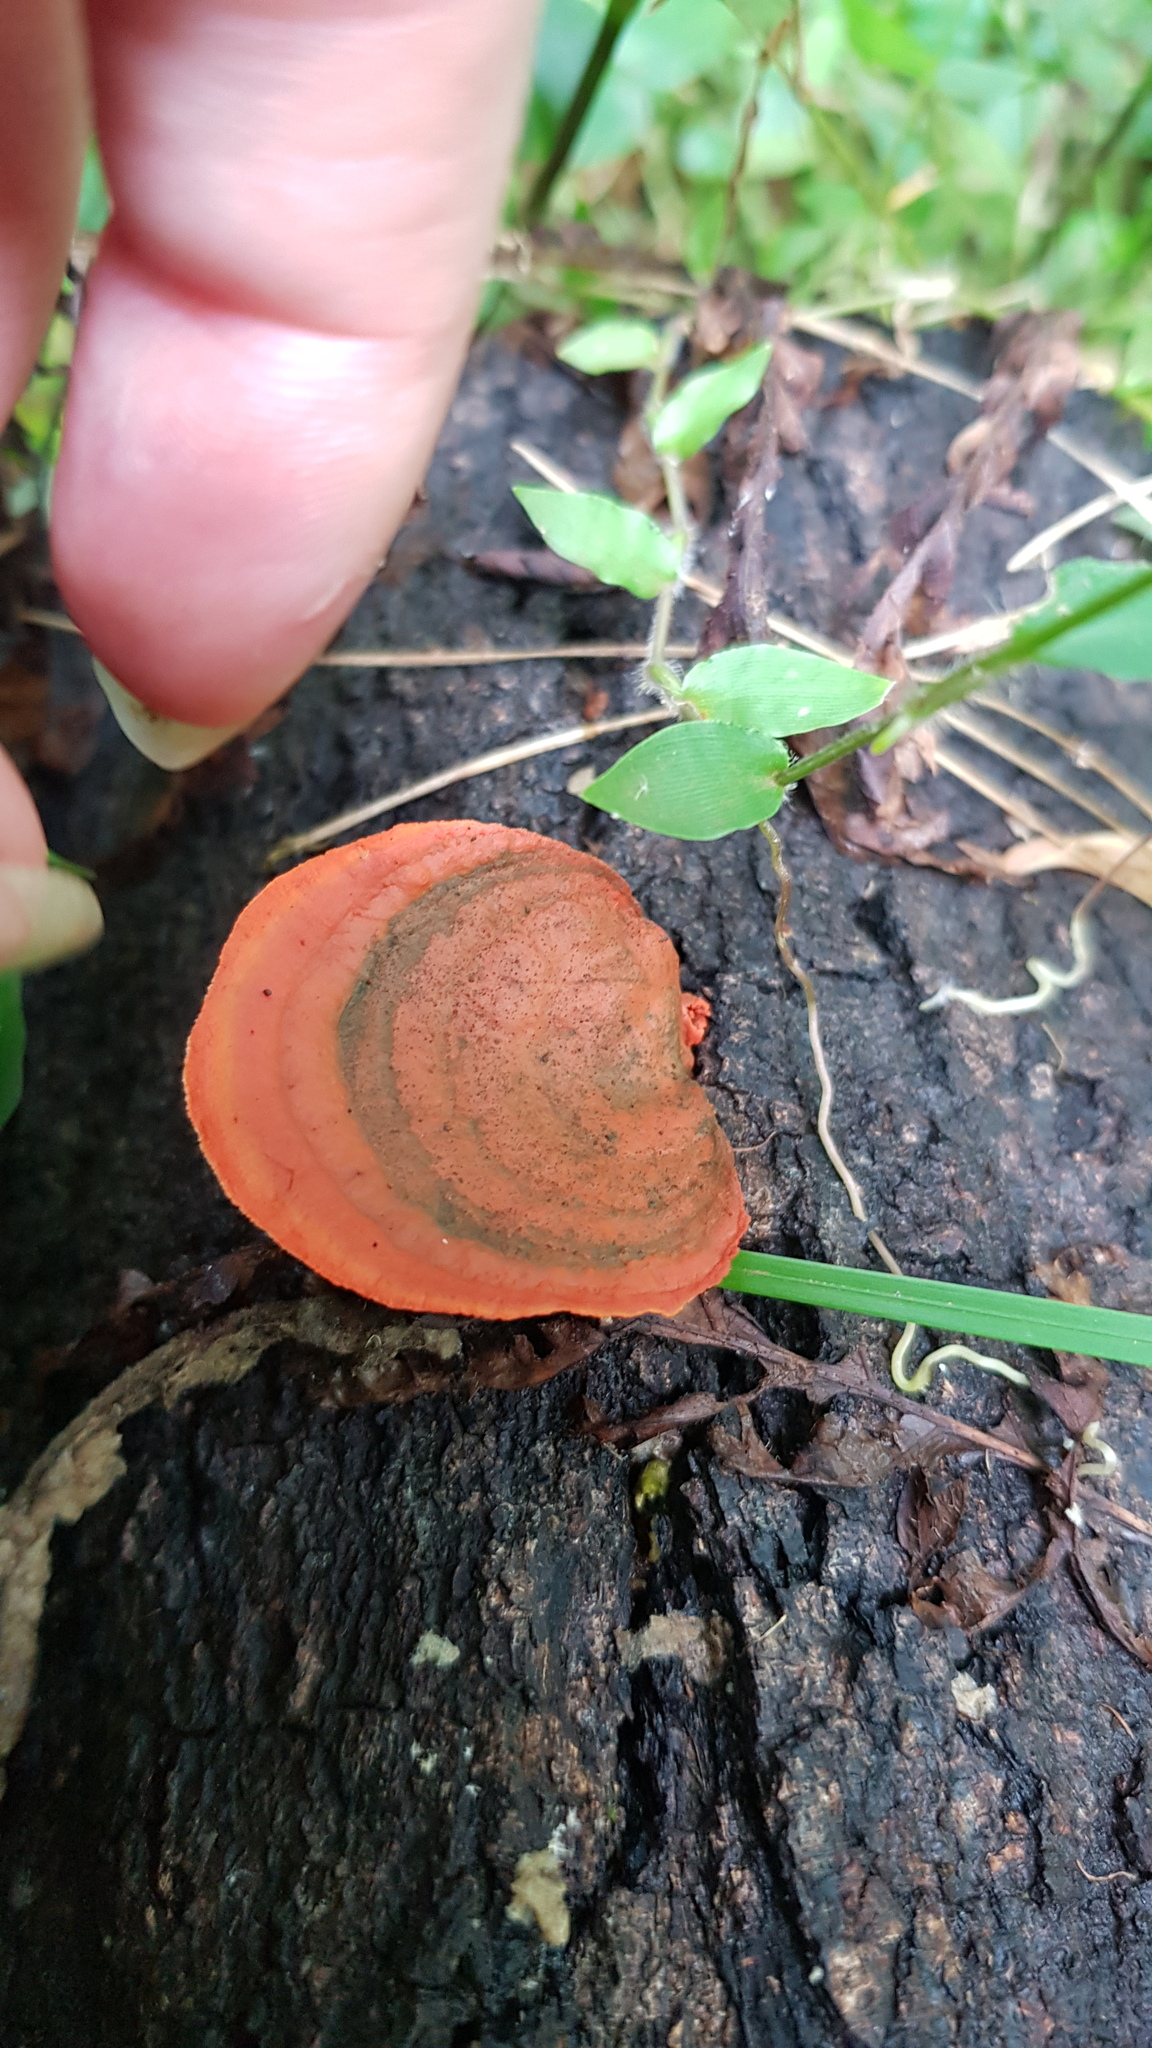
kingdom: Fungi
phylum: Basidiomycota
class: Agaricomycetes
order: Polyporales
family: Polyporaceae
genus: Trametes
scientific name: Trametes coccinea
